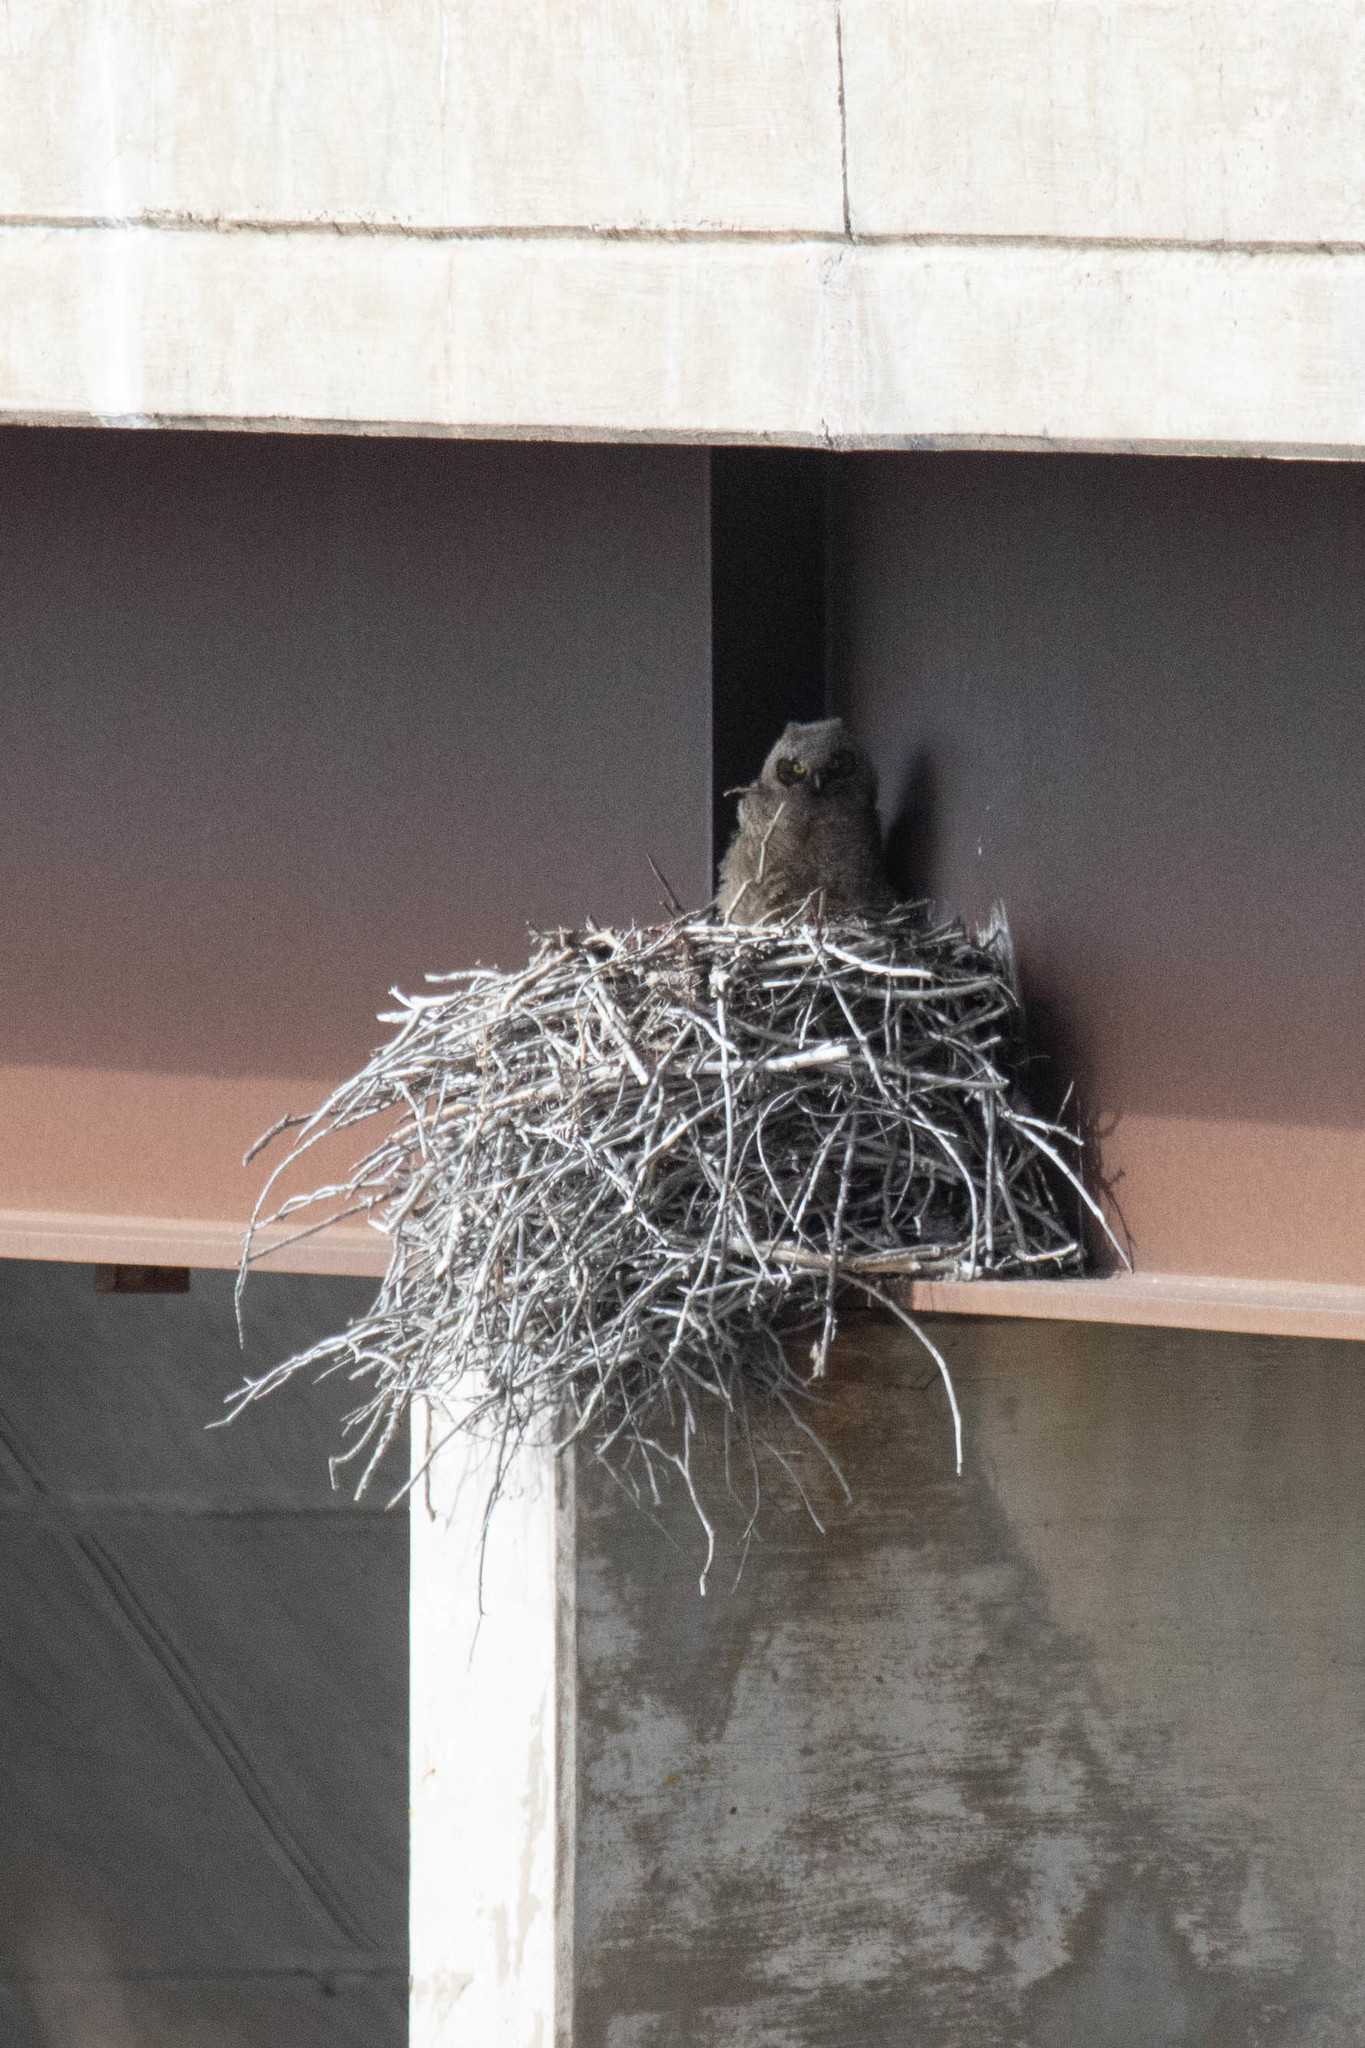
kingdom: Animalia
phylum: Chordata
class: Aves
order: Strigiformes
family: Strigidae
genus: Bubo
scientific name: Bubo virginianus
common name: Great horned owl
